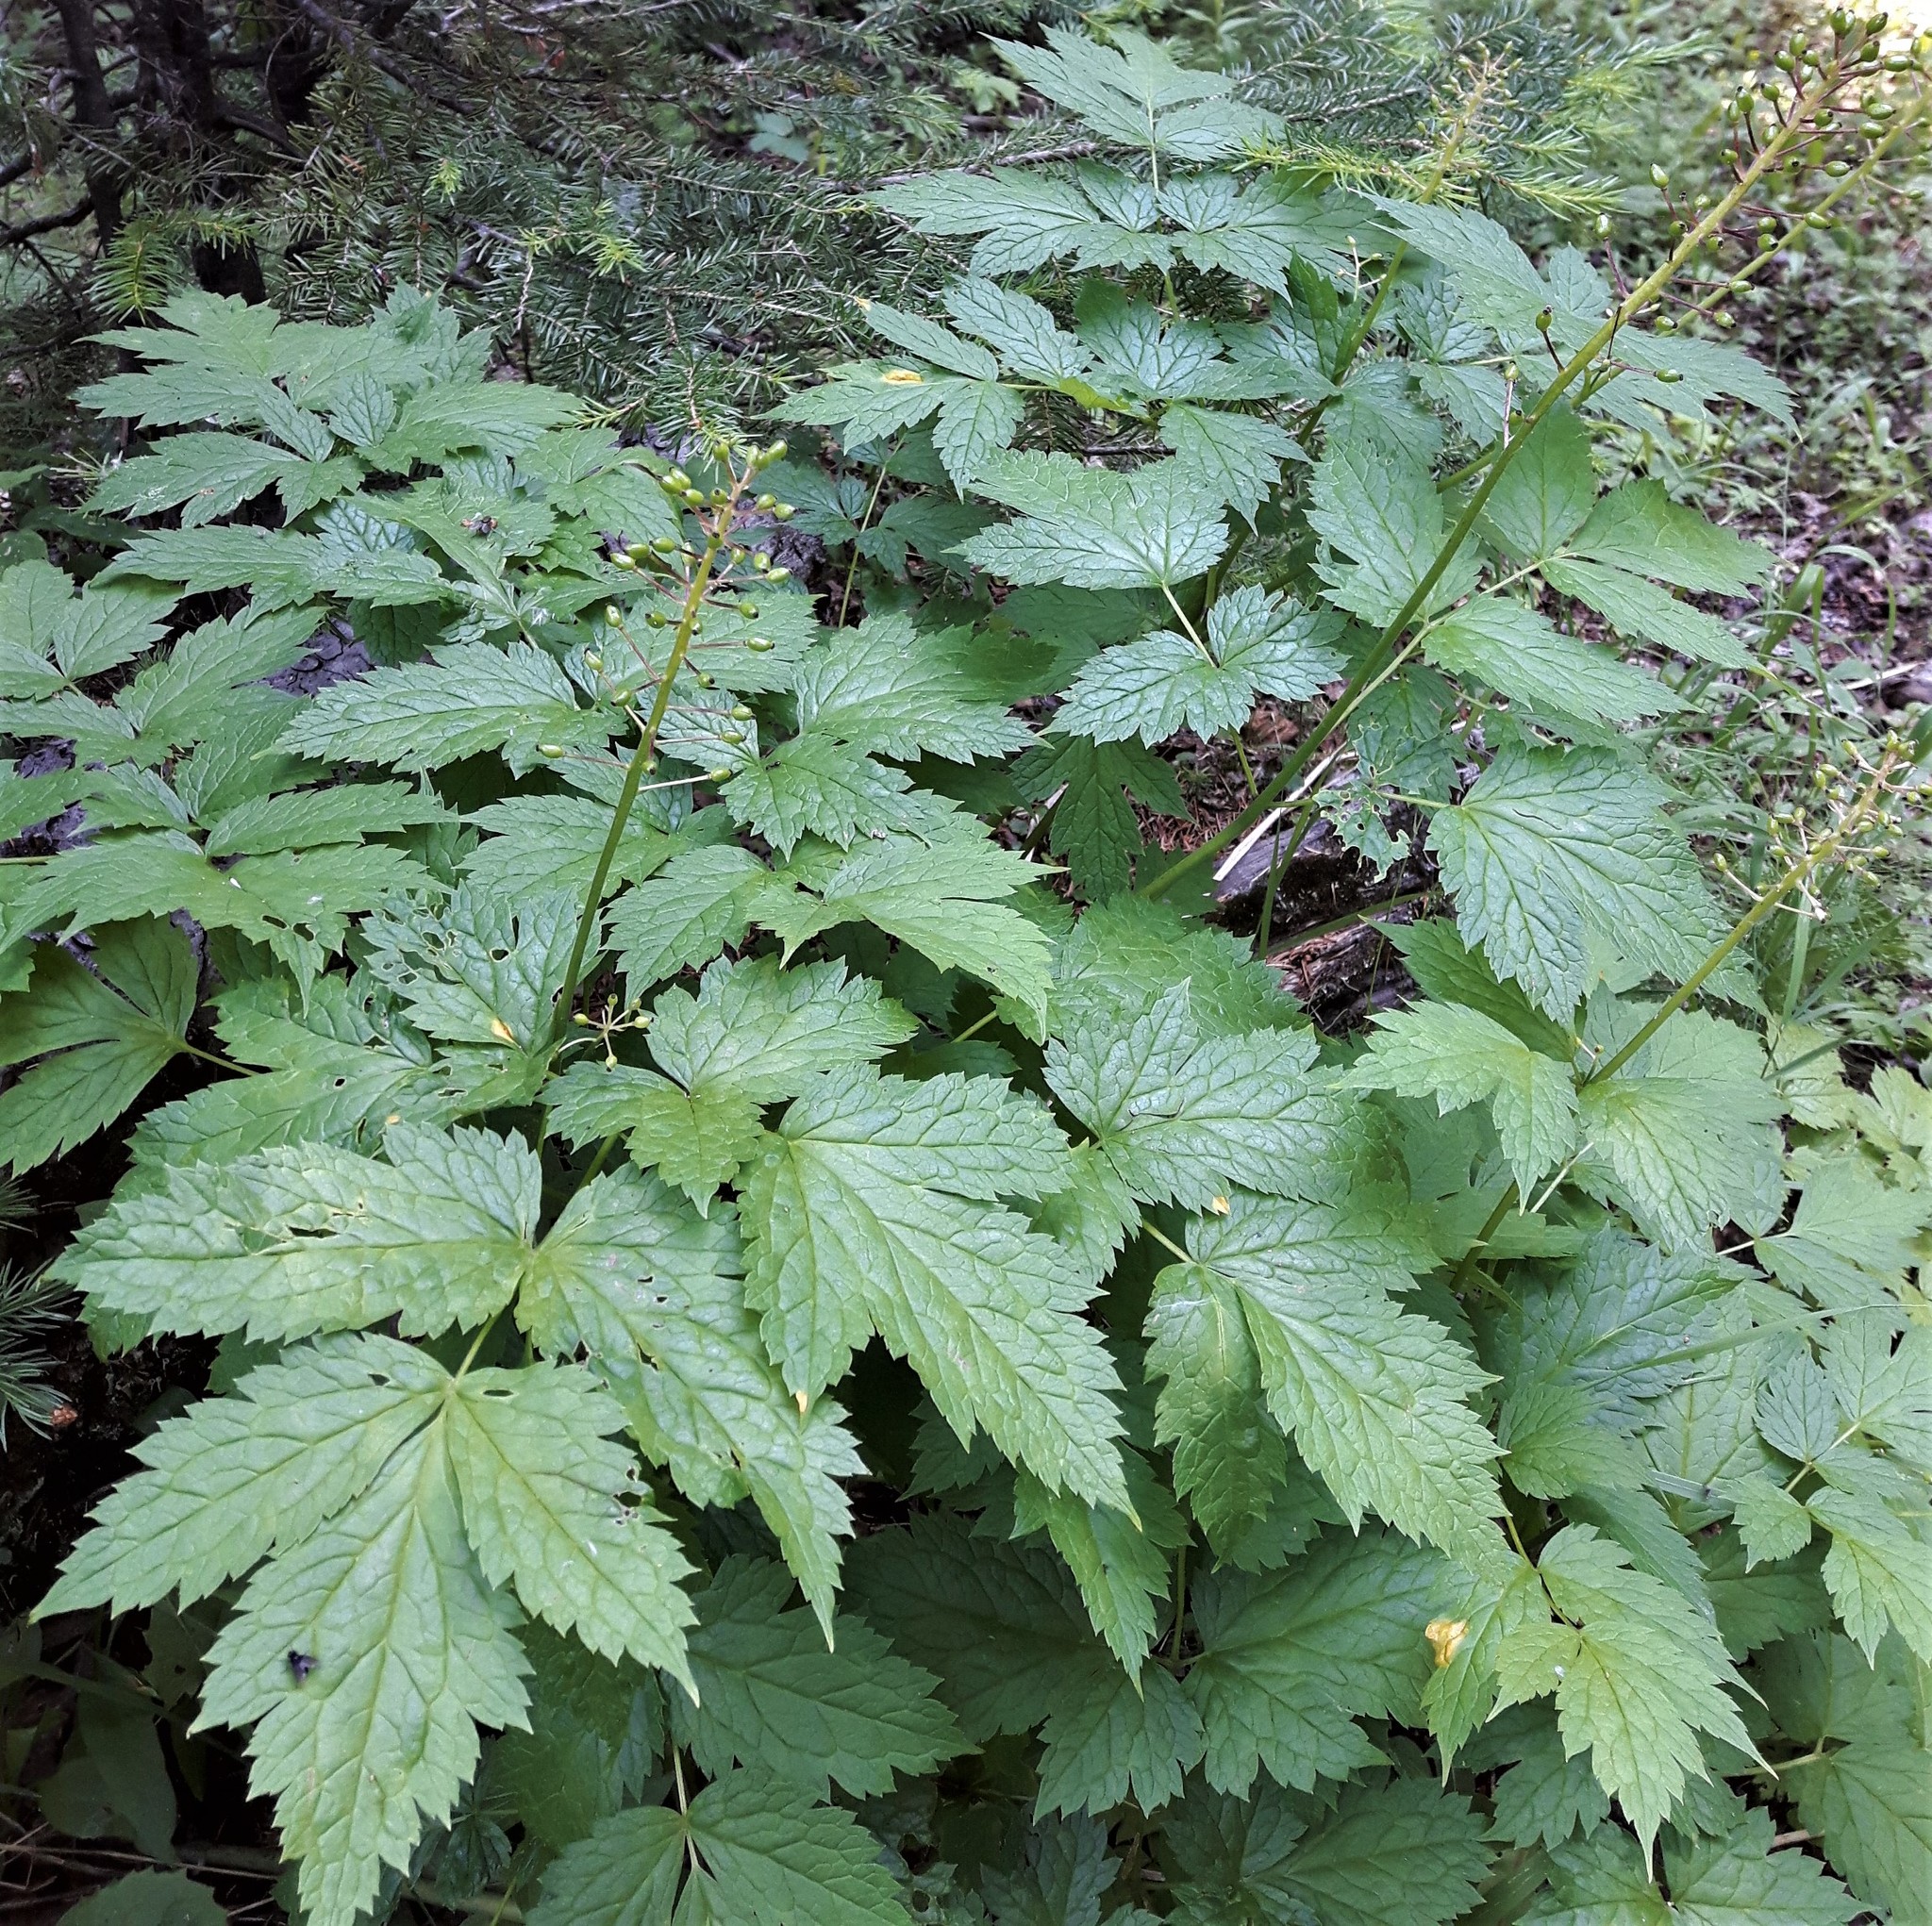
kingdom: Plantae
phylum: Tracheophyta
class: Magnoliopsida
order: Ranunculales
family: Ranunculaceae
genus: Actaea
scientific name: Actaea rubra
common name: Red baneberry
